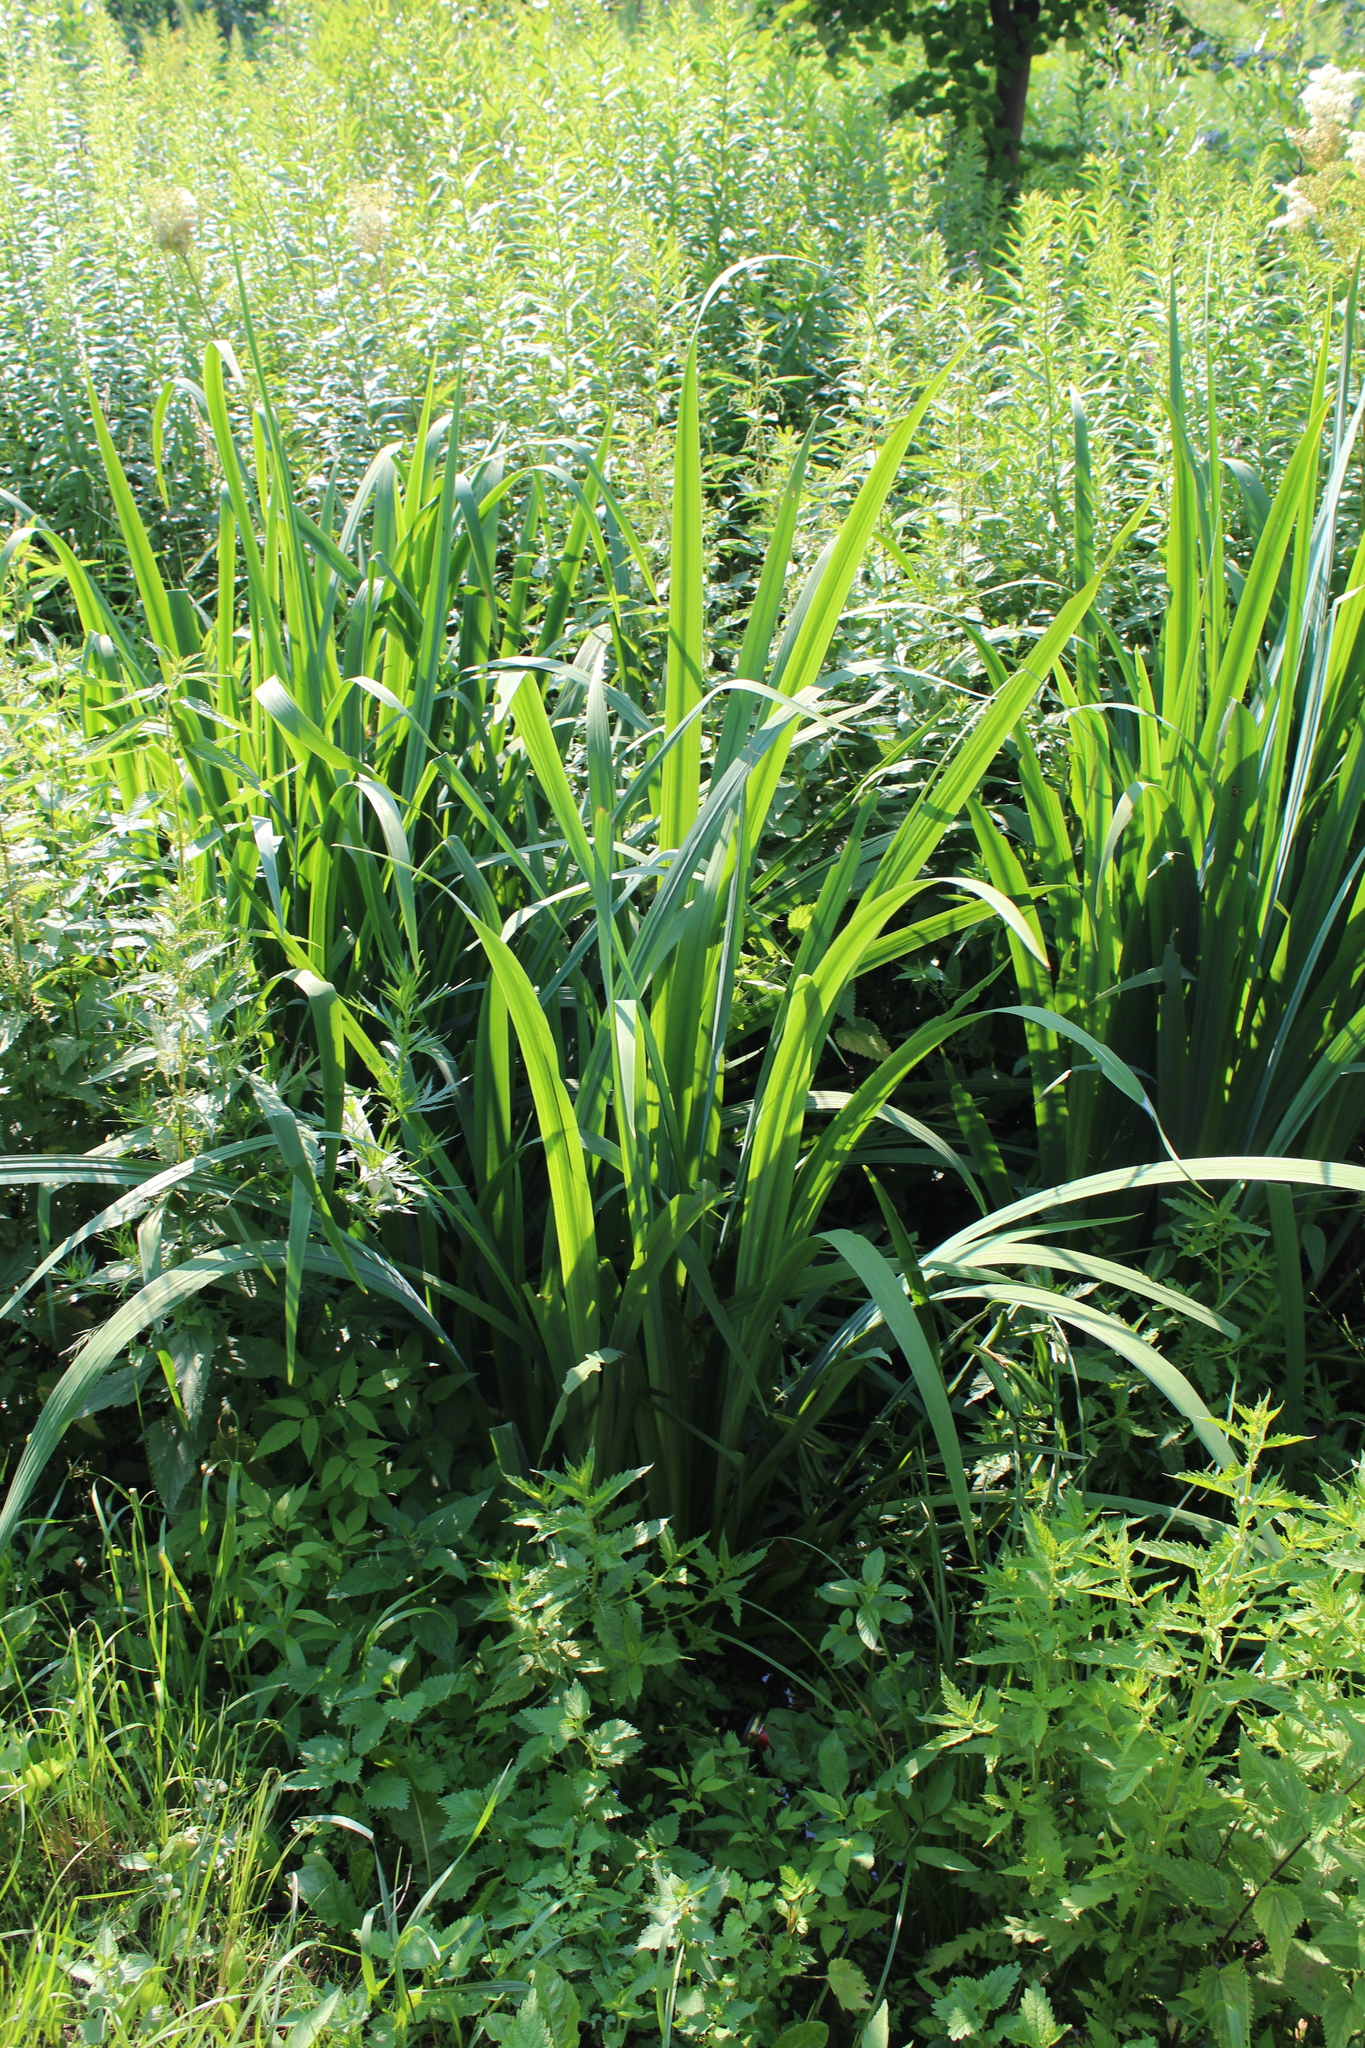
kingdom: Plantae
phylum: Tracheophyta
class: Liliopsida
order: Asparagales
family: Iridaceae
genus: Iris
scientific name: Iris pseudacorus
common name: Yellow flag
